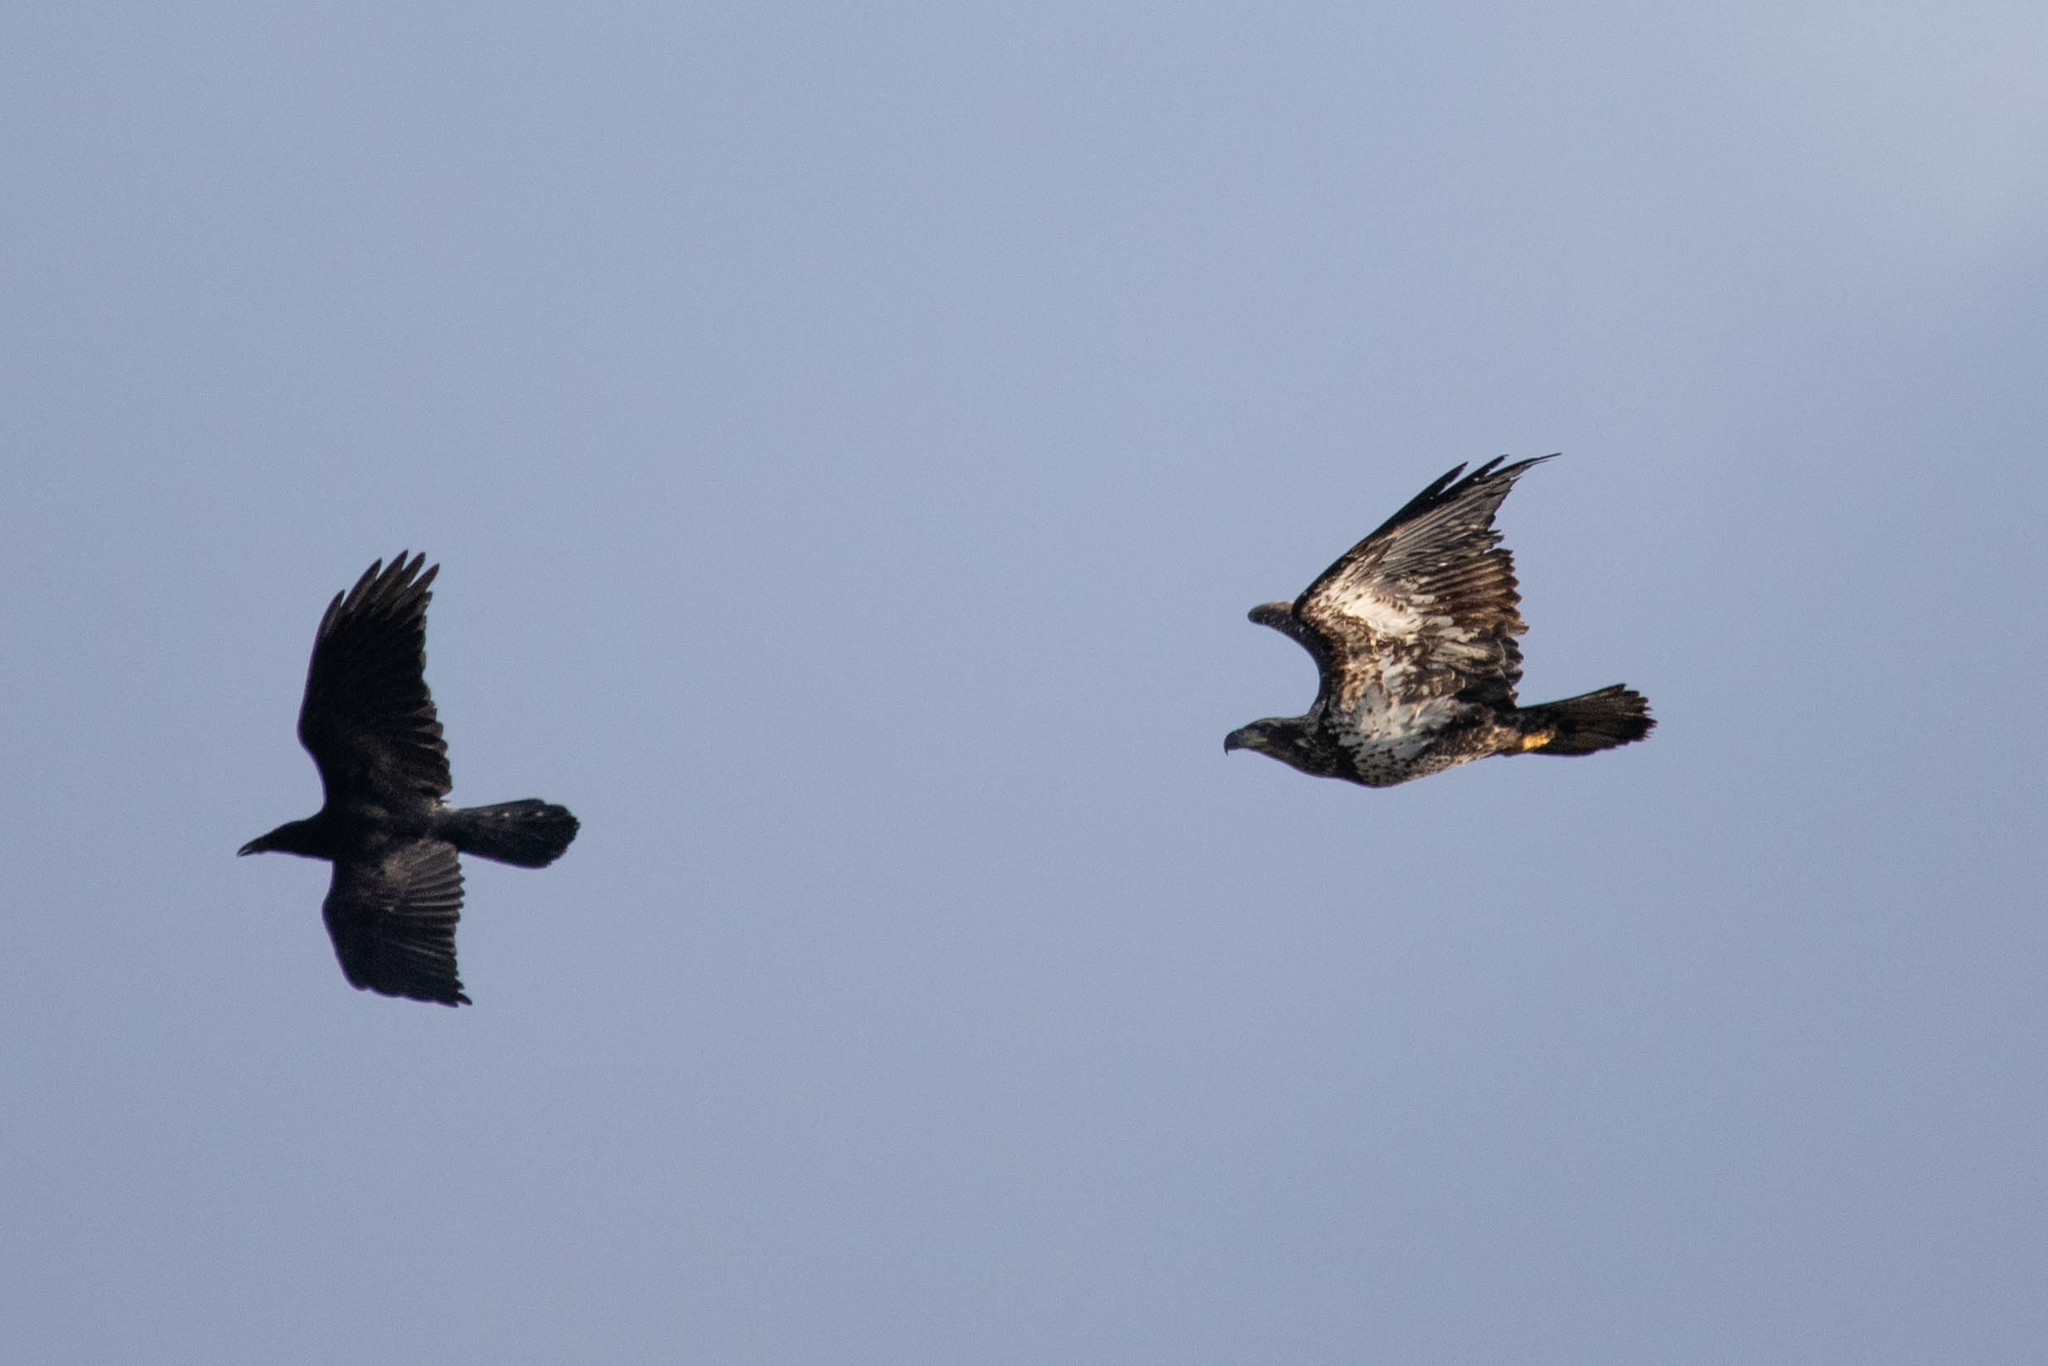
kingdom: Animalia
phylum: Chordata
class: Aves
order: Passeriformes
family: Corvidae
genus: Corvus
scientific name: Corvus corax
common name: Common raven
